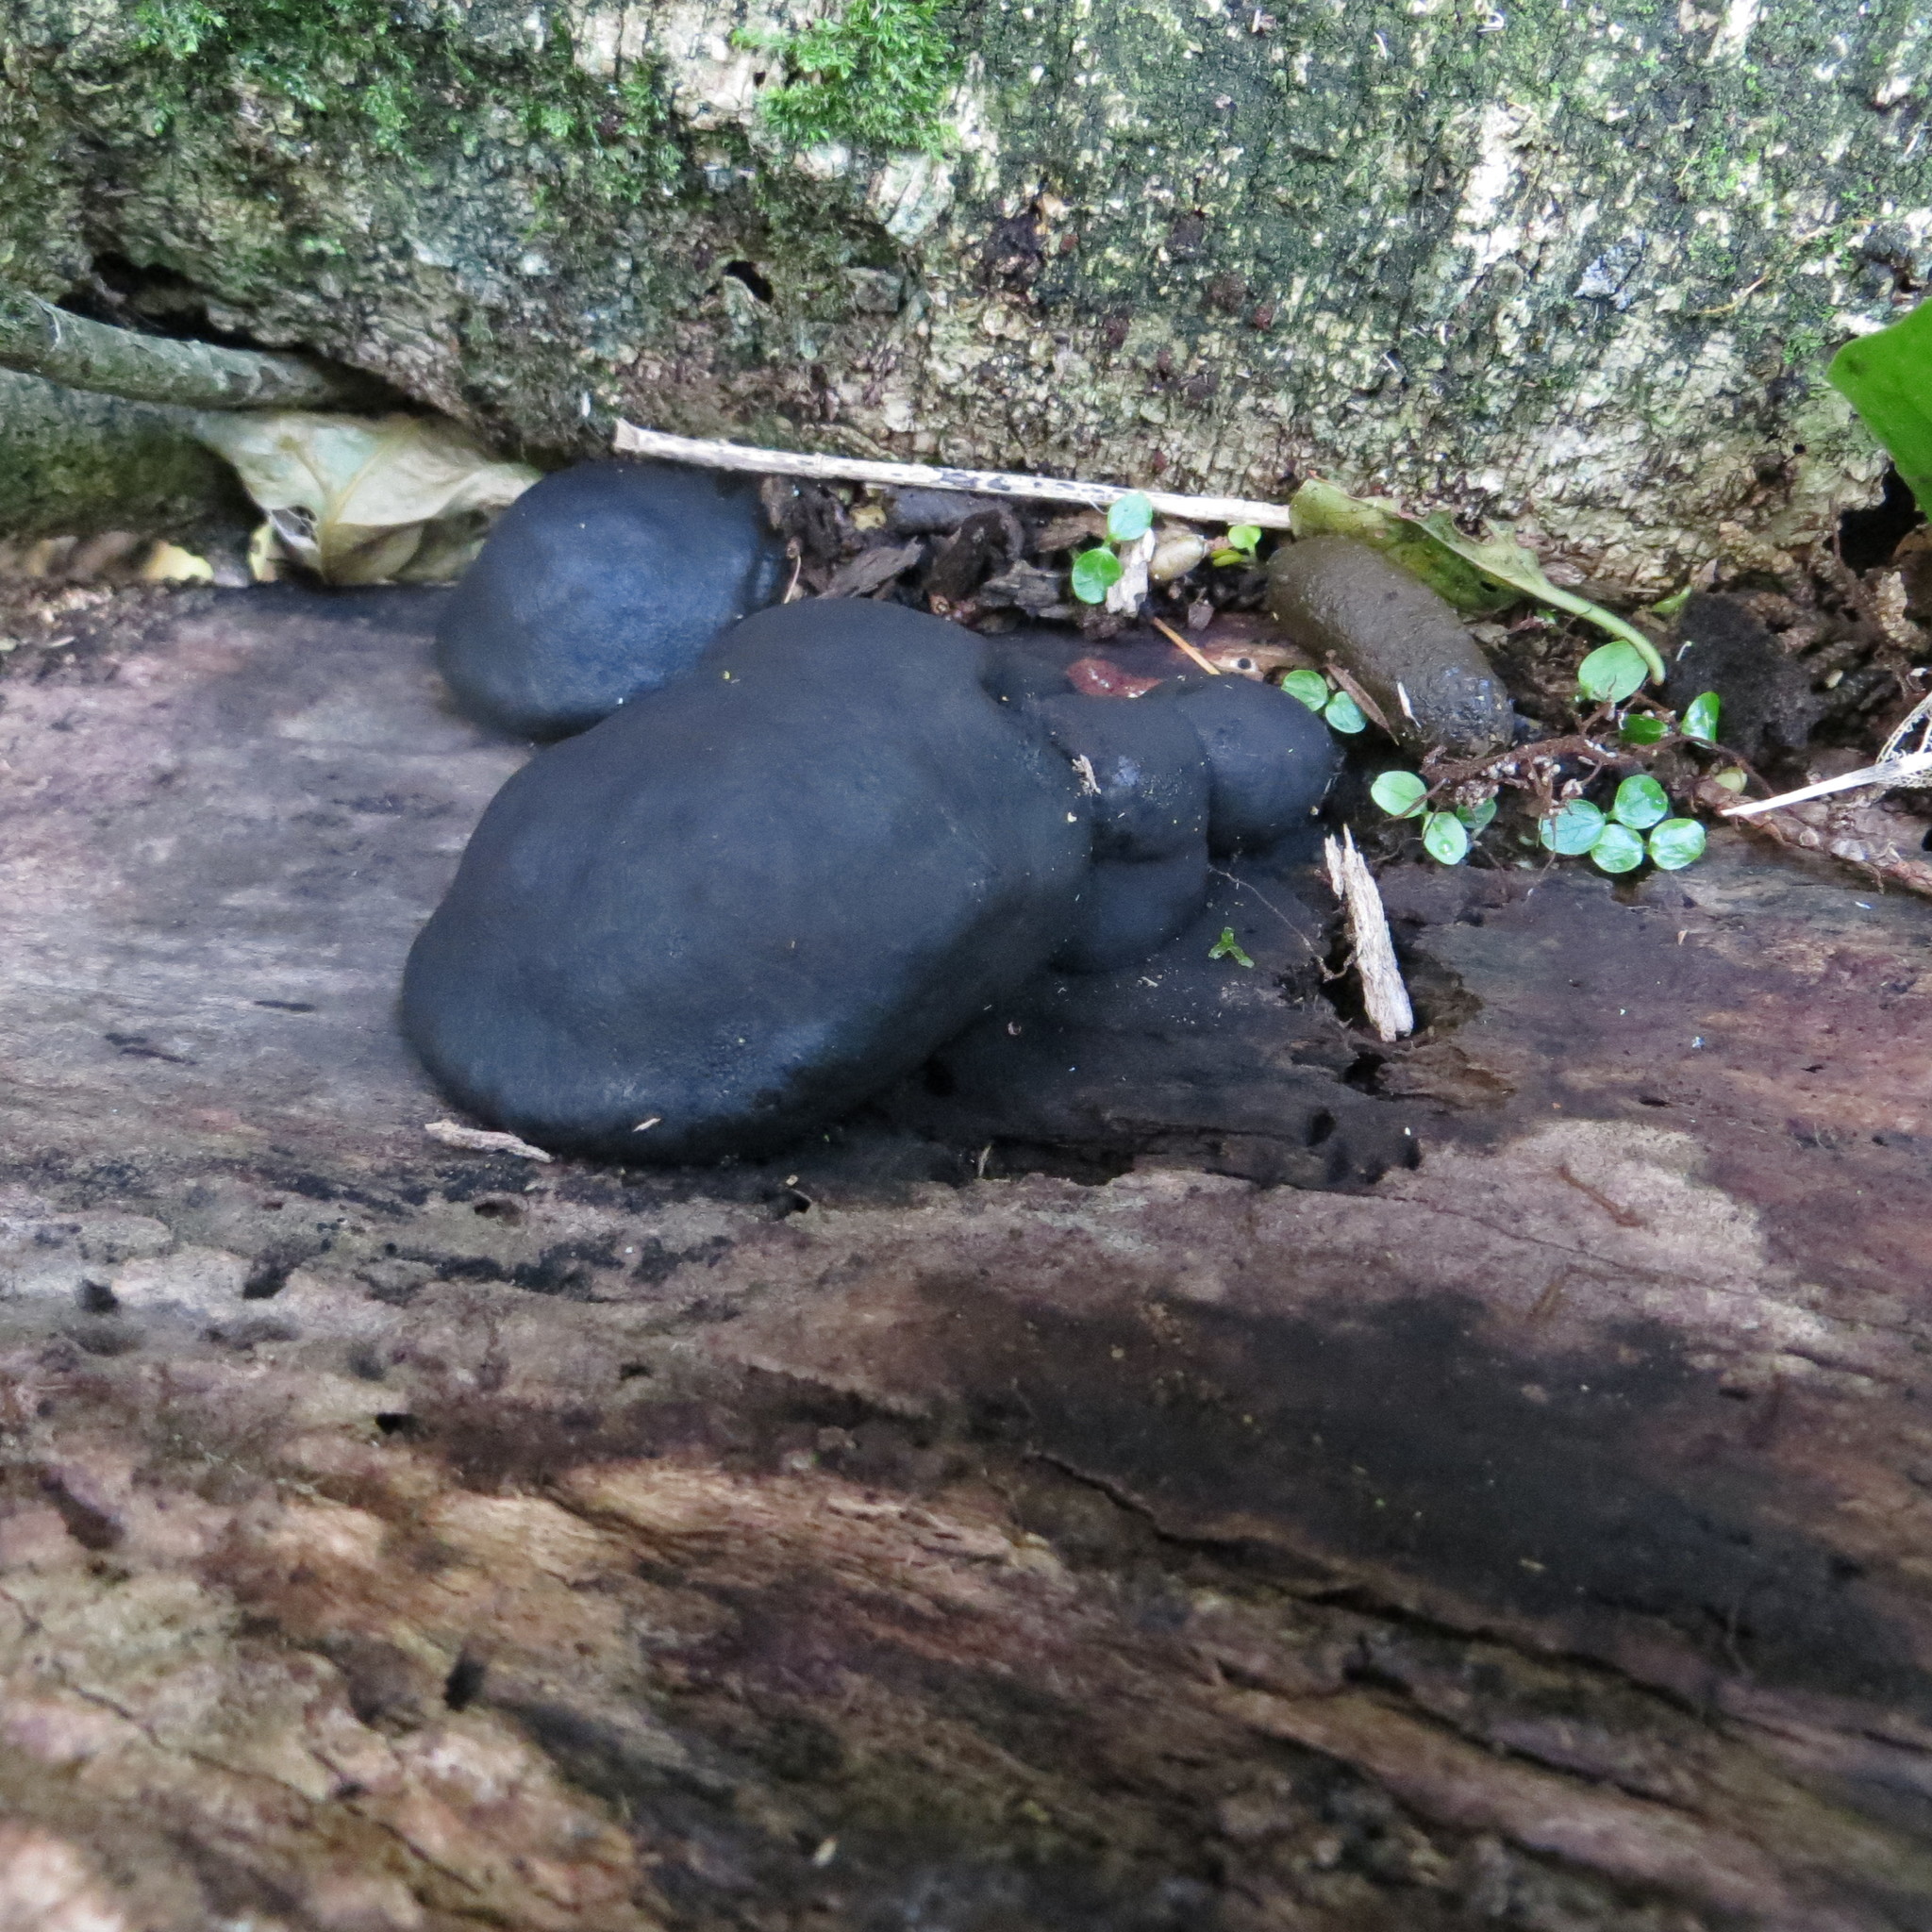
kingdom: Fungi
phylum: Ascomycota
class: Sordariomycetes
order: Xylariales
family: Hypoxylaceae
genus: Daldinia
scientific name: Daldinia
